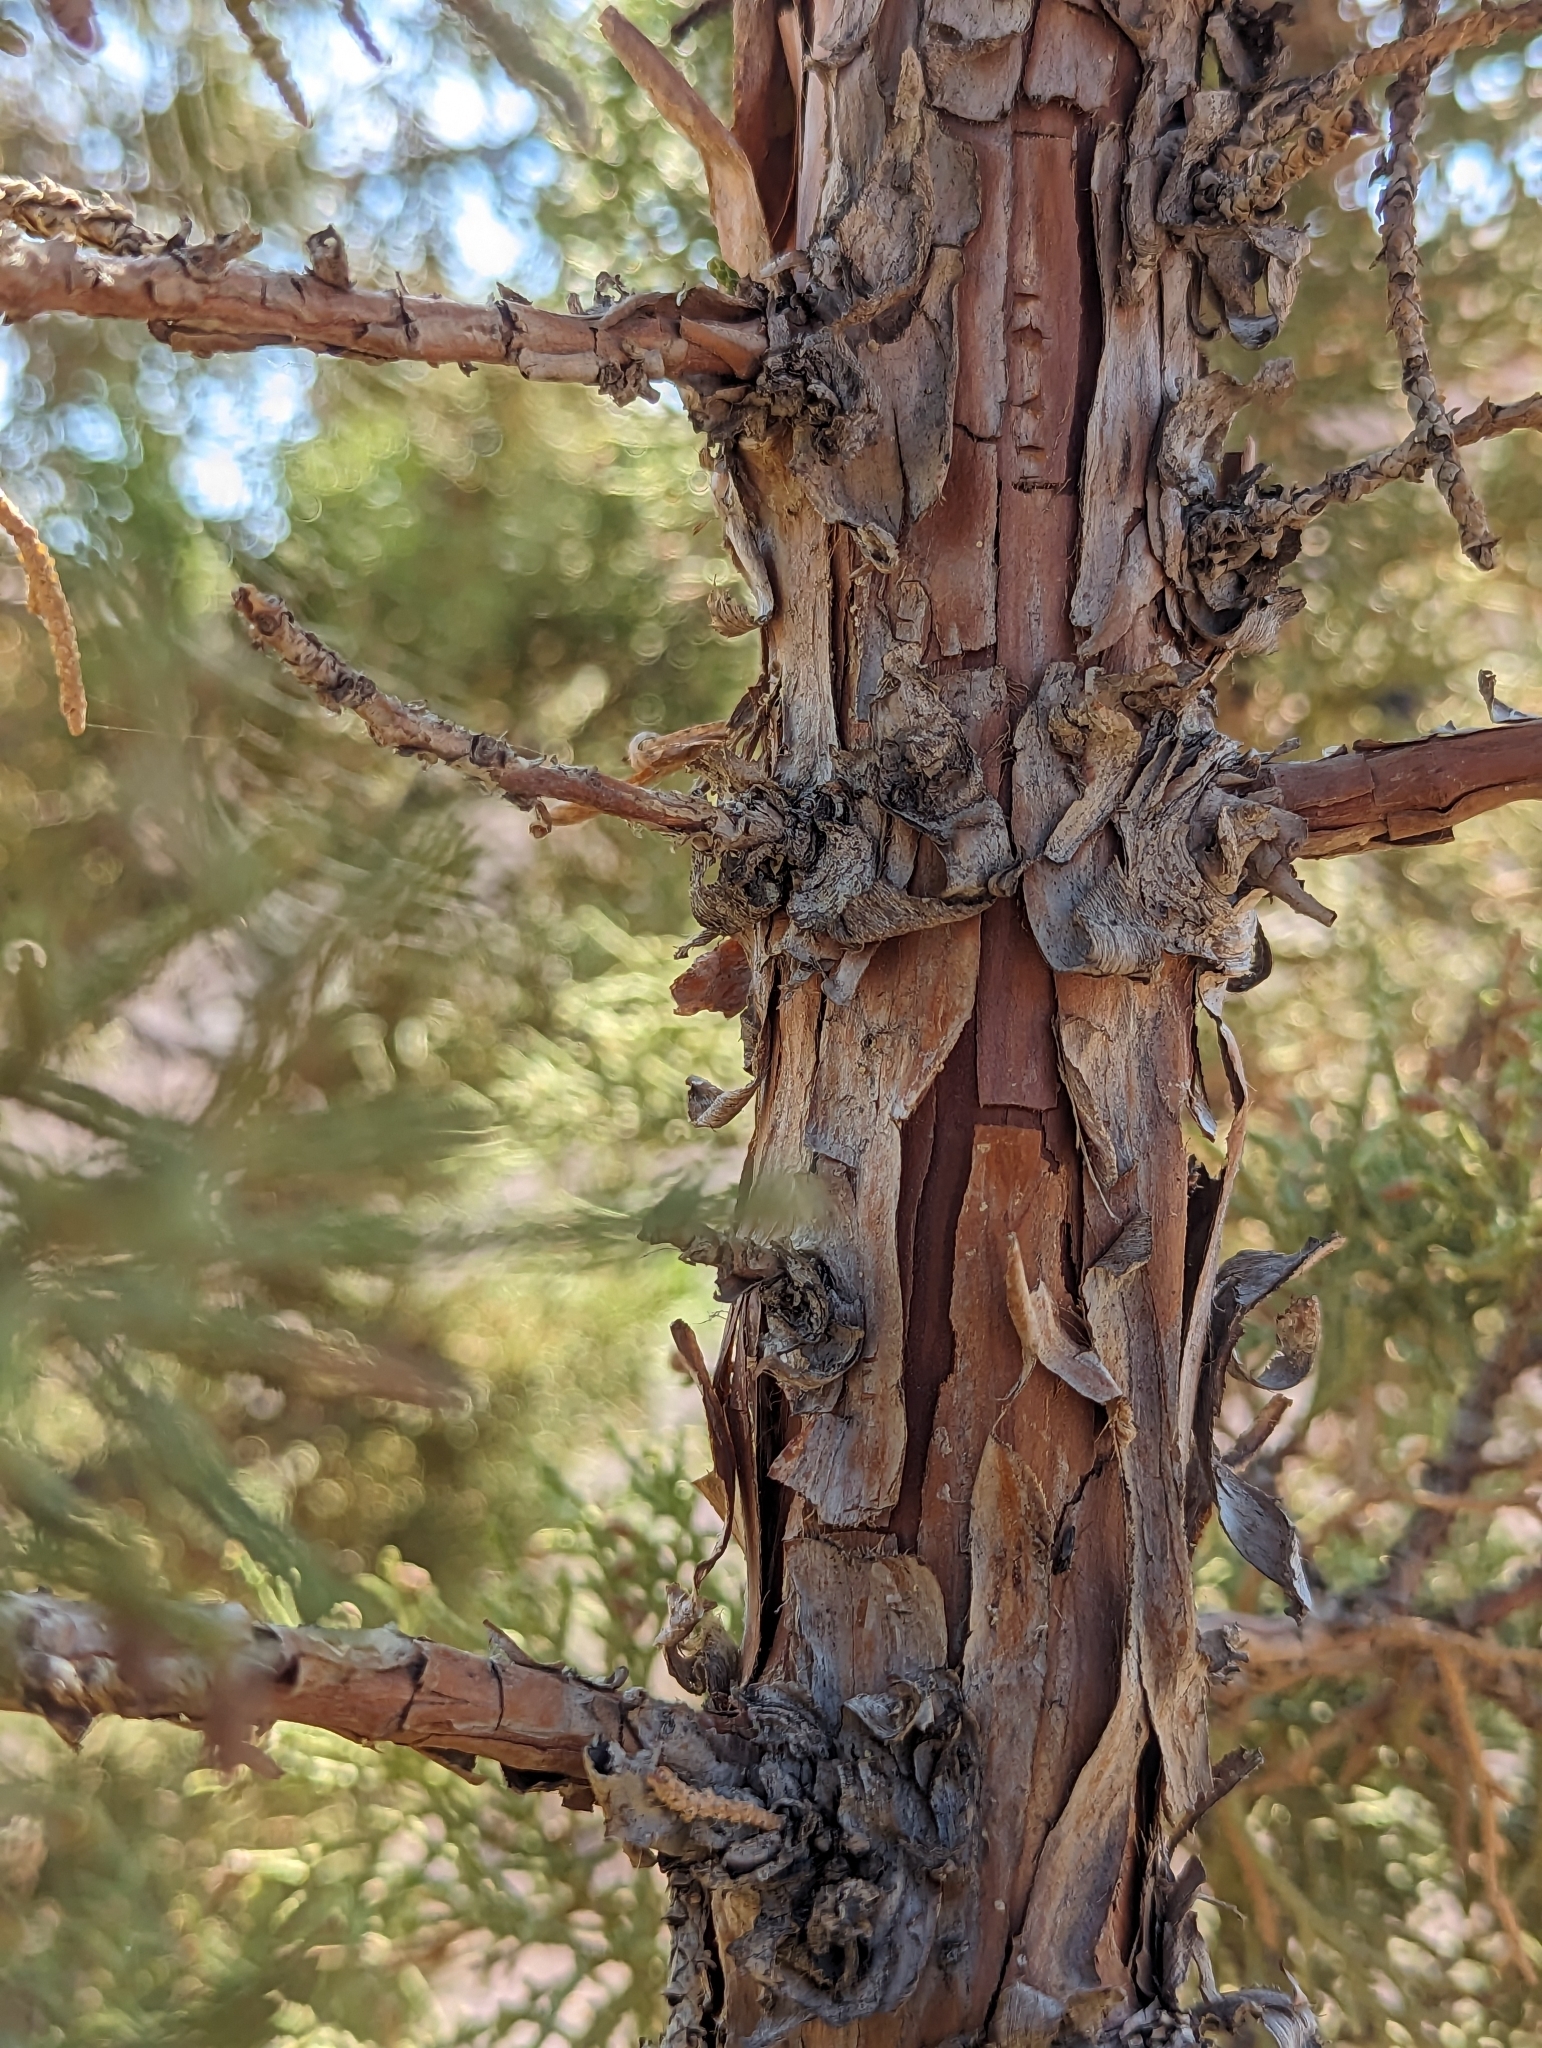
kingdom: Plantae
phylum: Tracheophyta
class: Pinopsida
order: Pinales
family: Cupressaceae
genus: Juniperus
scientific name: Juniperus occidentalis
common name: Western juniper
